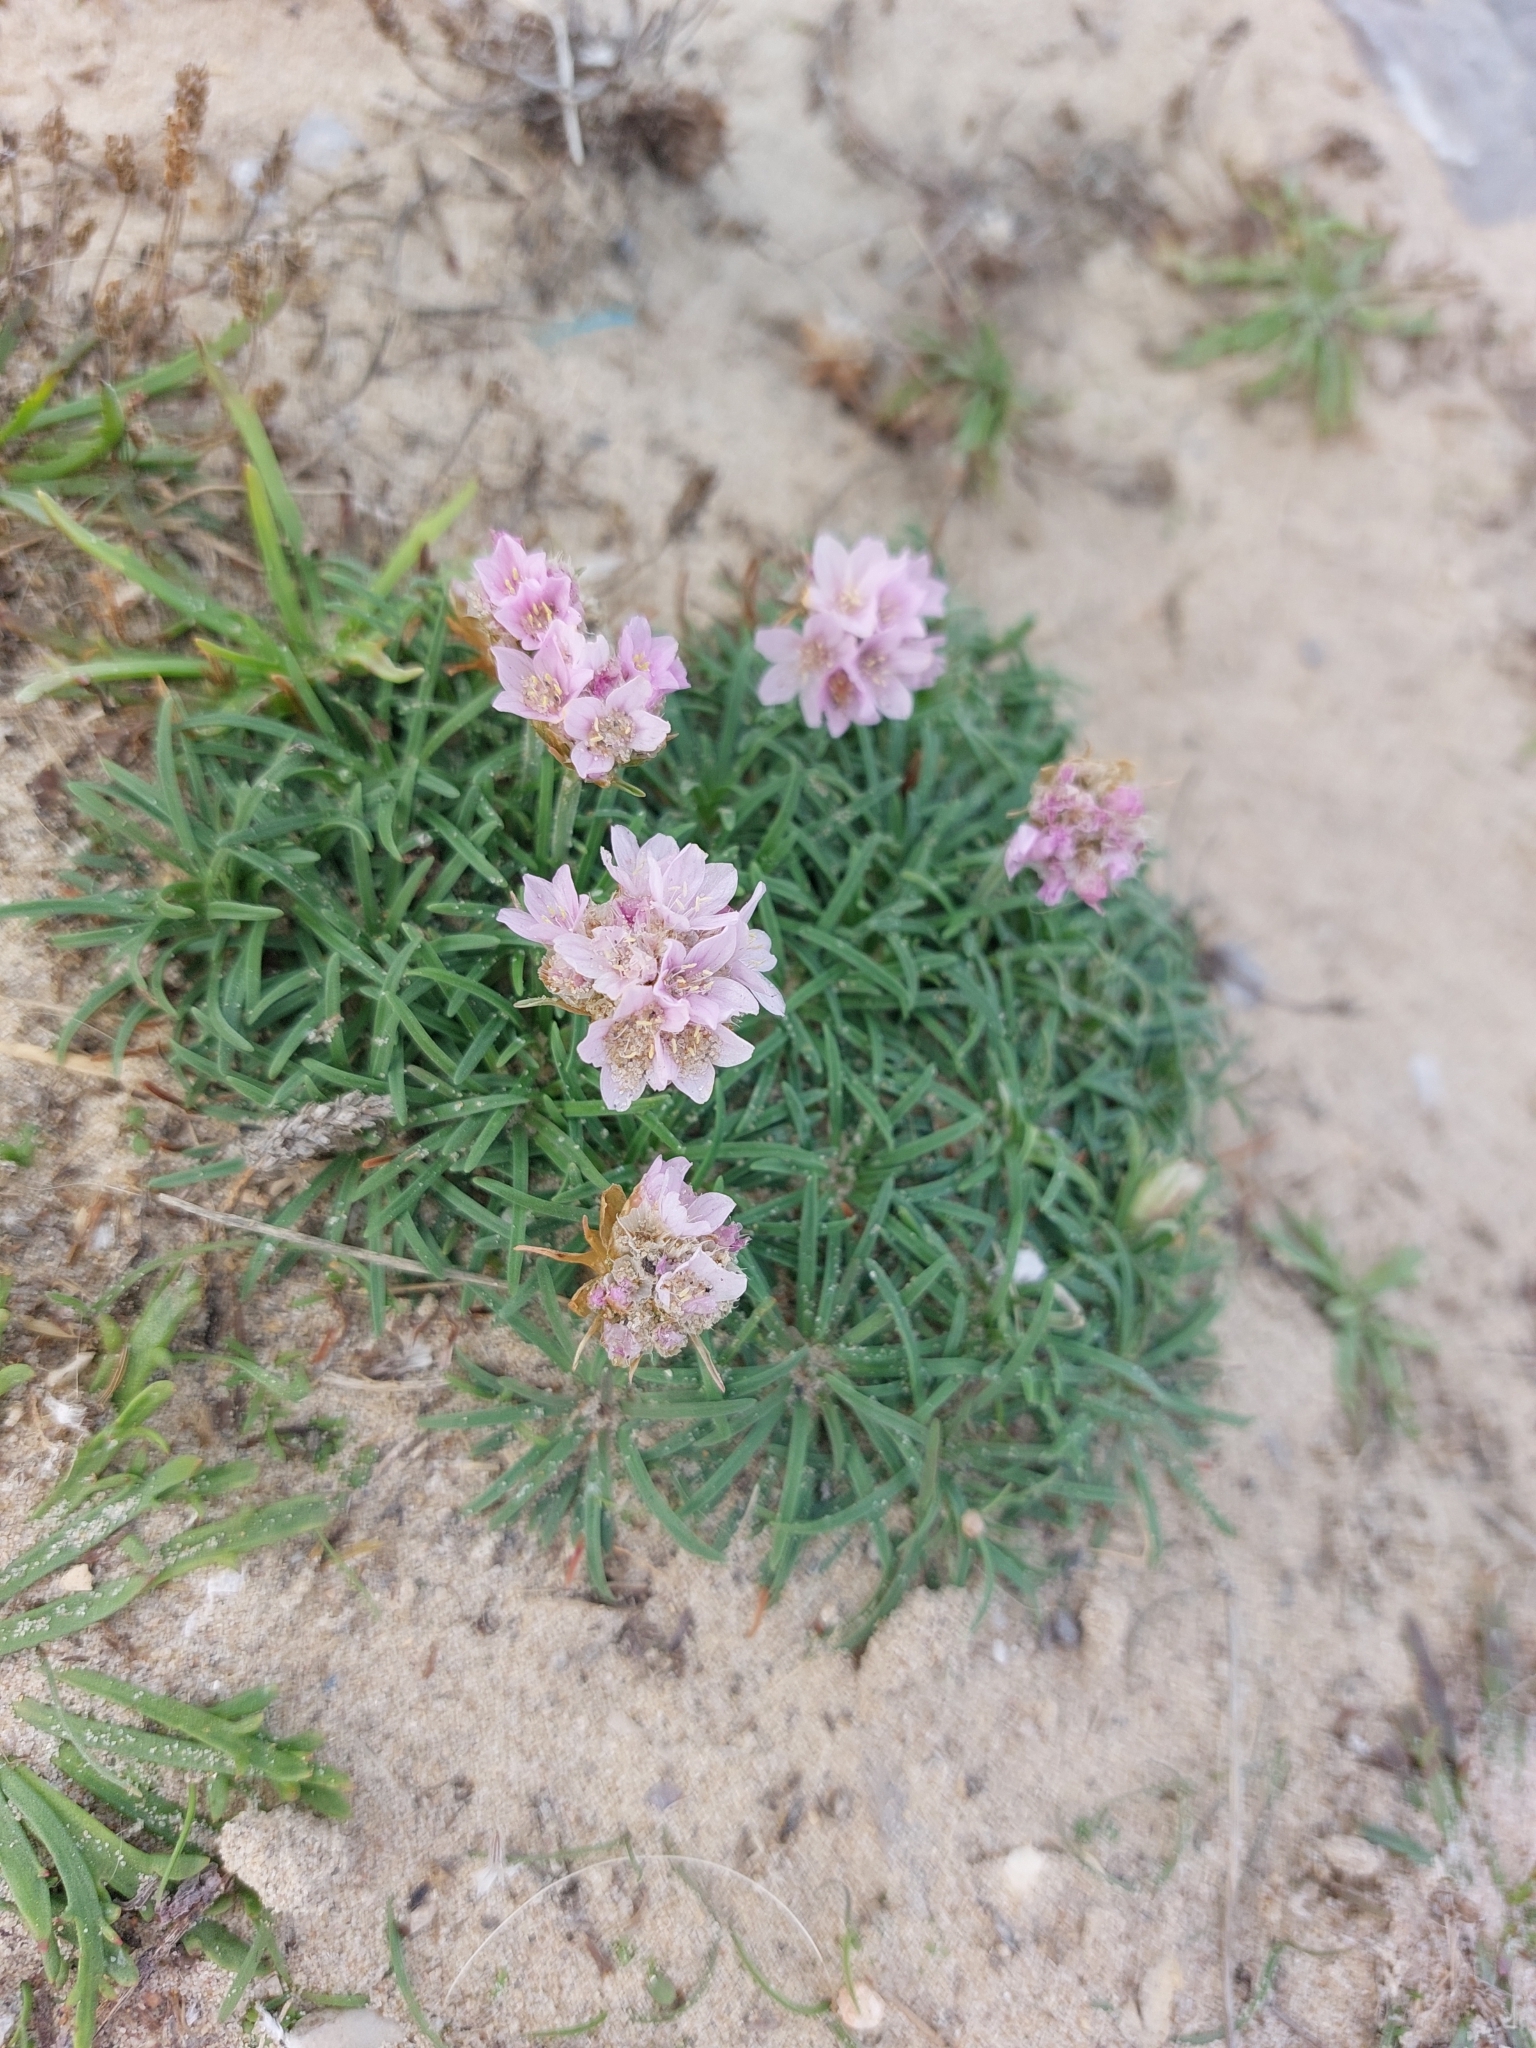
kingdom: Plantae
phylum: Tracheophyta
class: Magnoliopsida
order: Caryophyllales
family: Plumbaginaceae
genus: Armeria
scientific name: Armeria maritima
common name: Thrift
